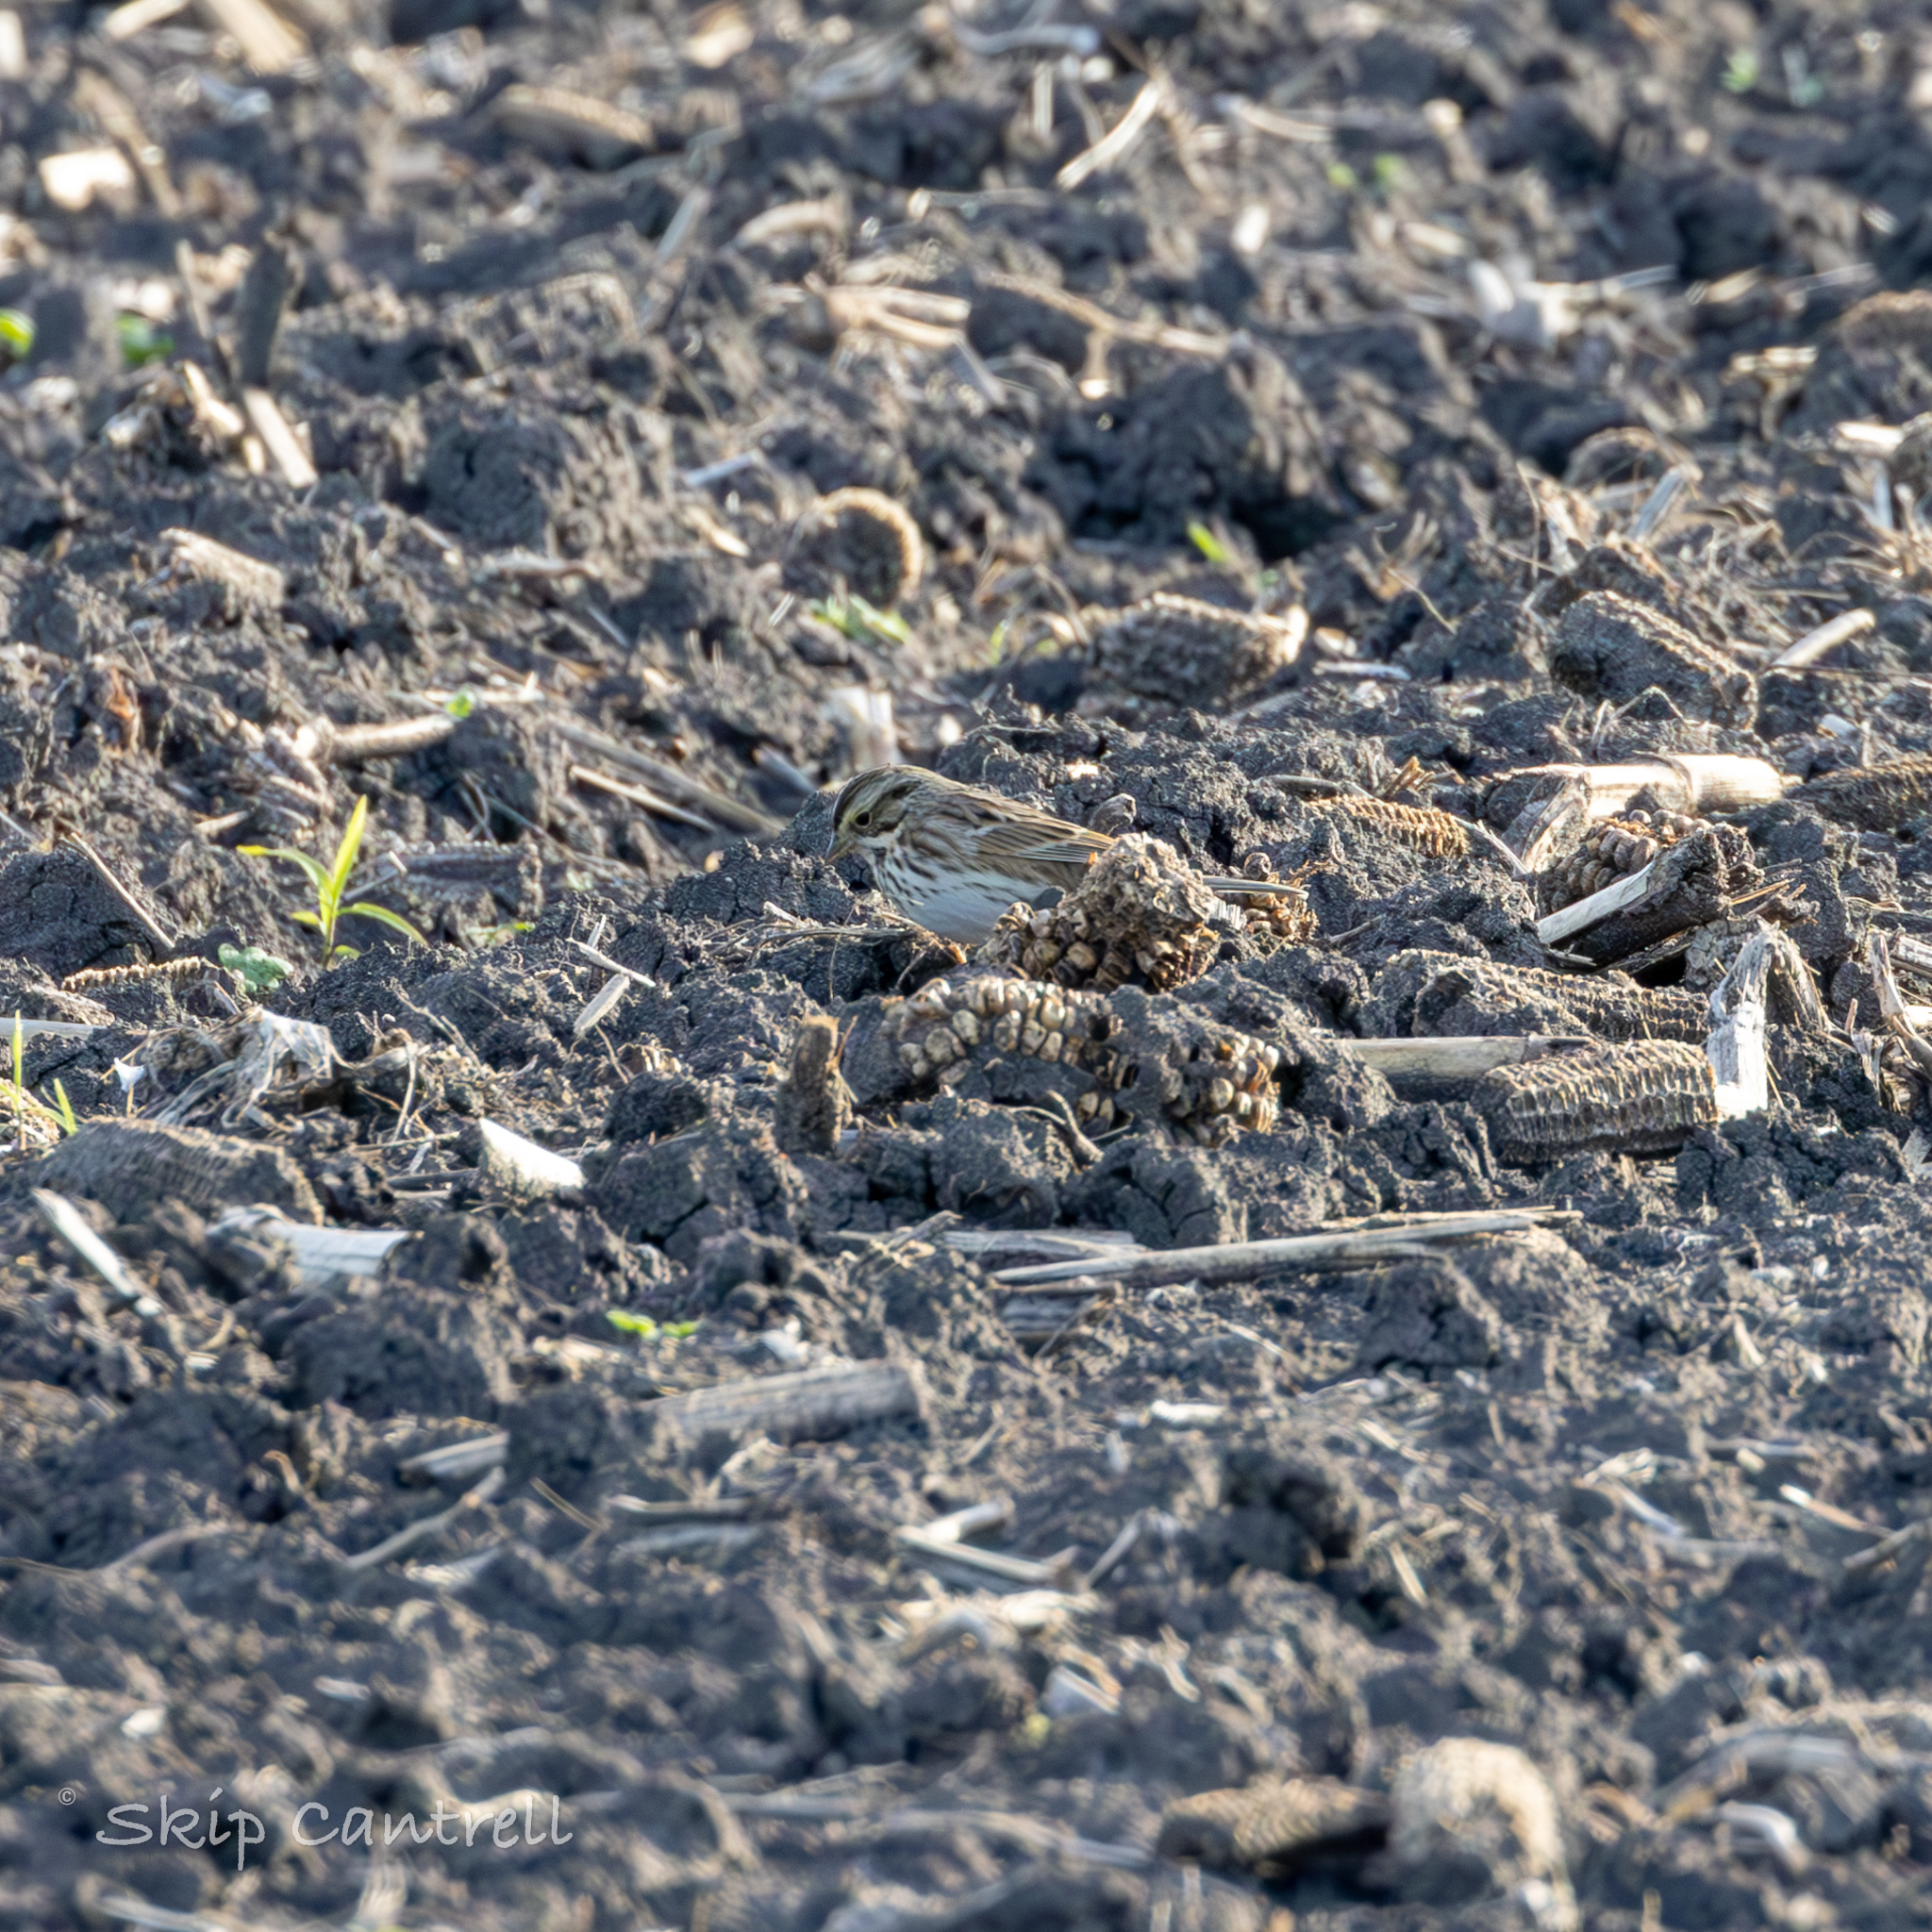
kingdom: Animalia
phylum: Chordata
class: Aves
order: Passeriformes
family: Passerellidae
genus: Passerculus
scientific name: Passerculus sandwichensis
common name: Savannah sparrow
